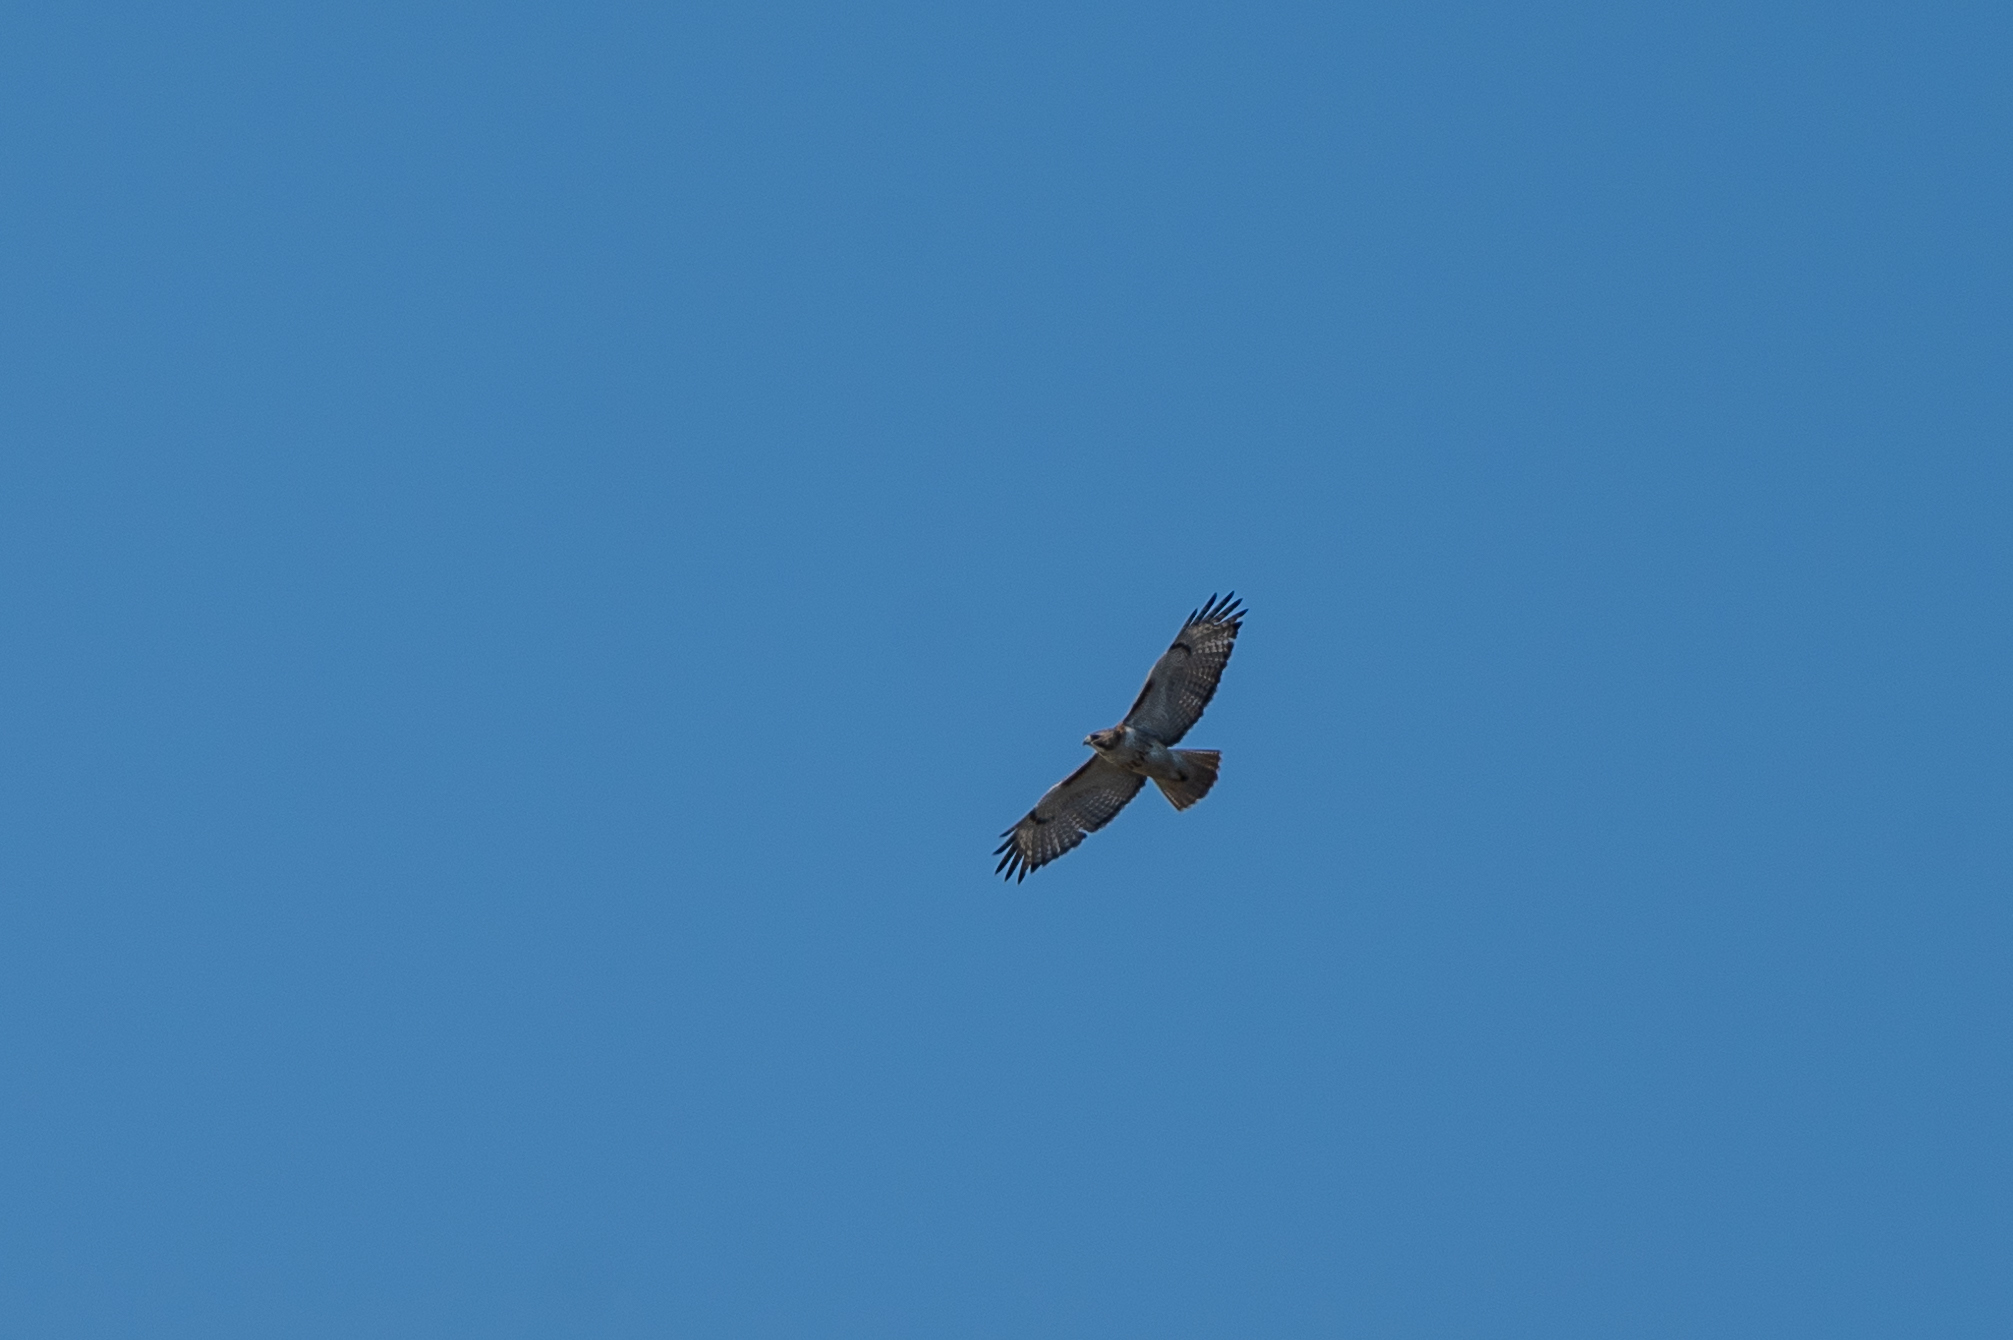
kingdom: Animalia
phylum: Chordata
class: Aves
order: Accipitriformes
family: Accipitridae
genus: Buteo
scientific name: Buteo jamaicensis
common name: Red-tailed hawk
